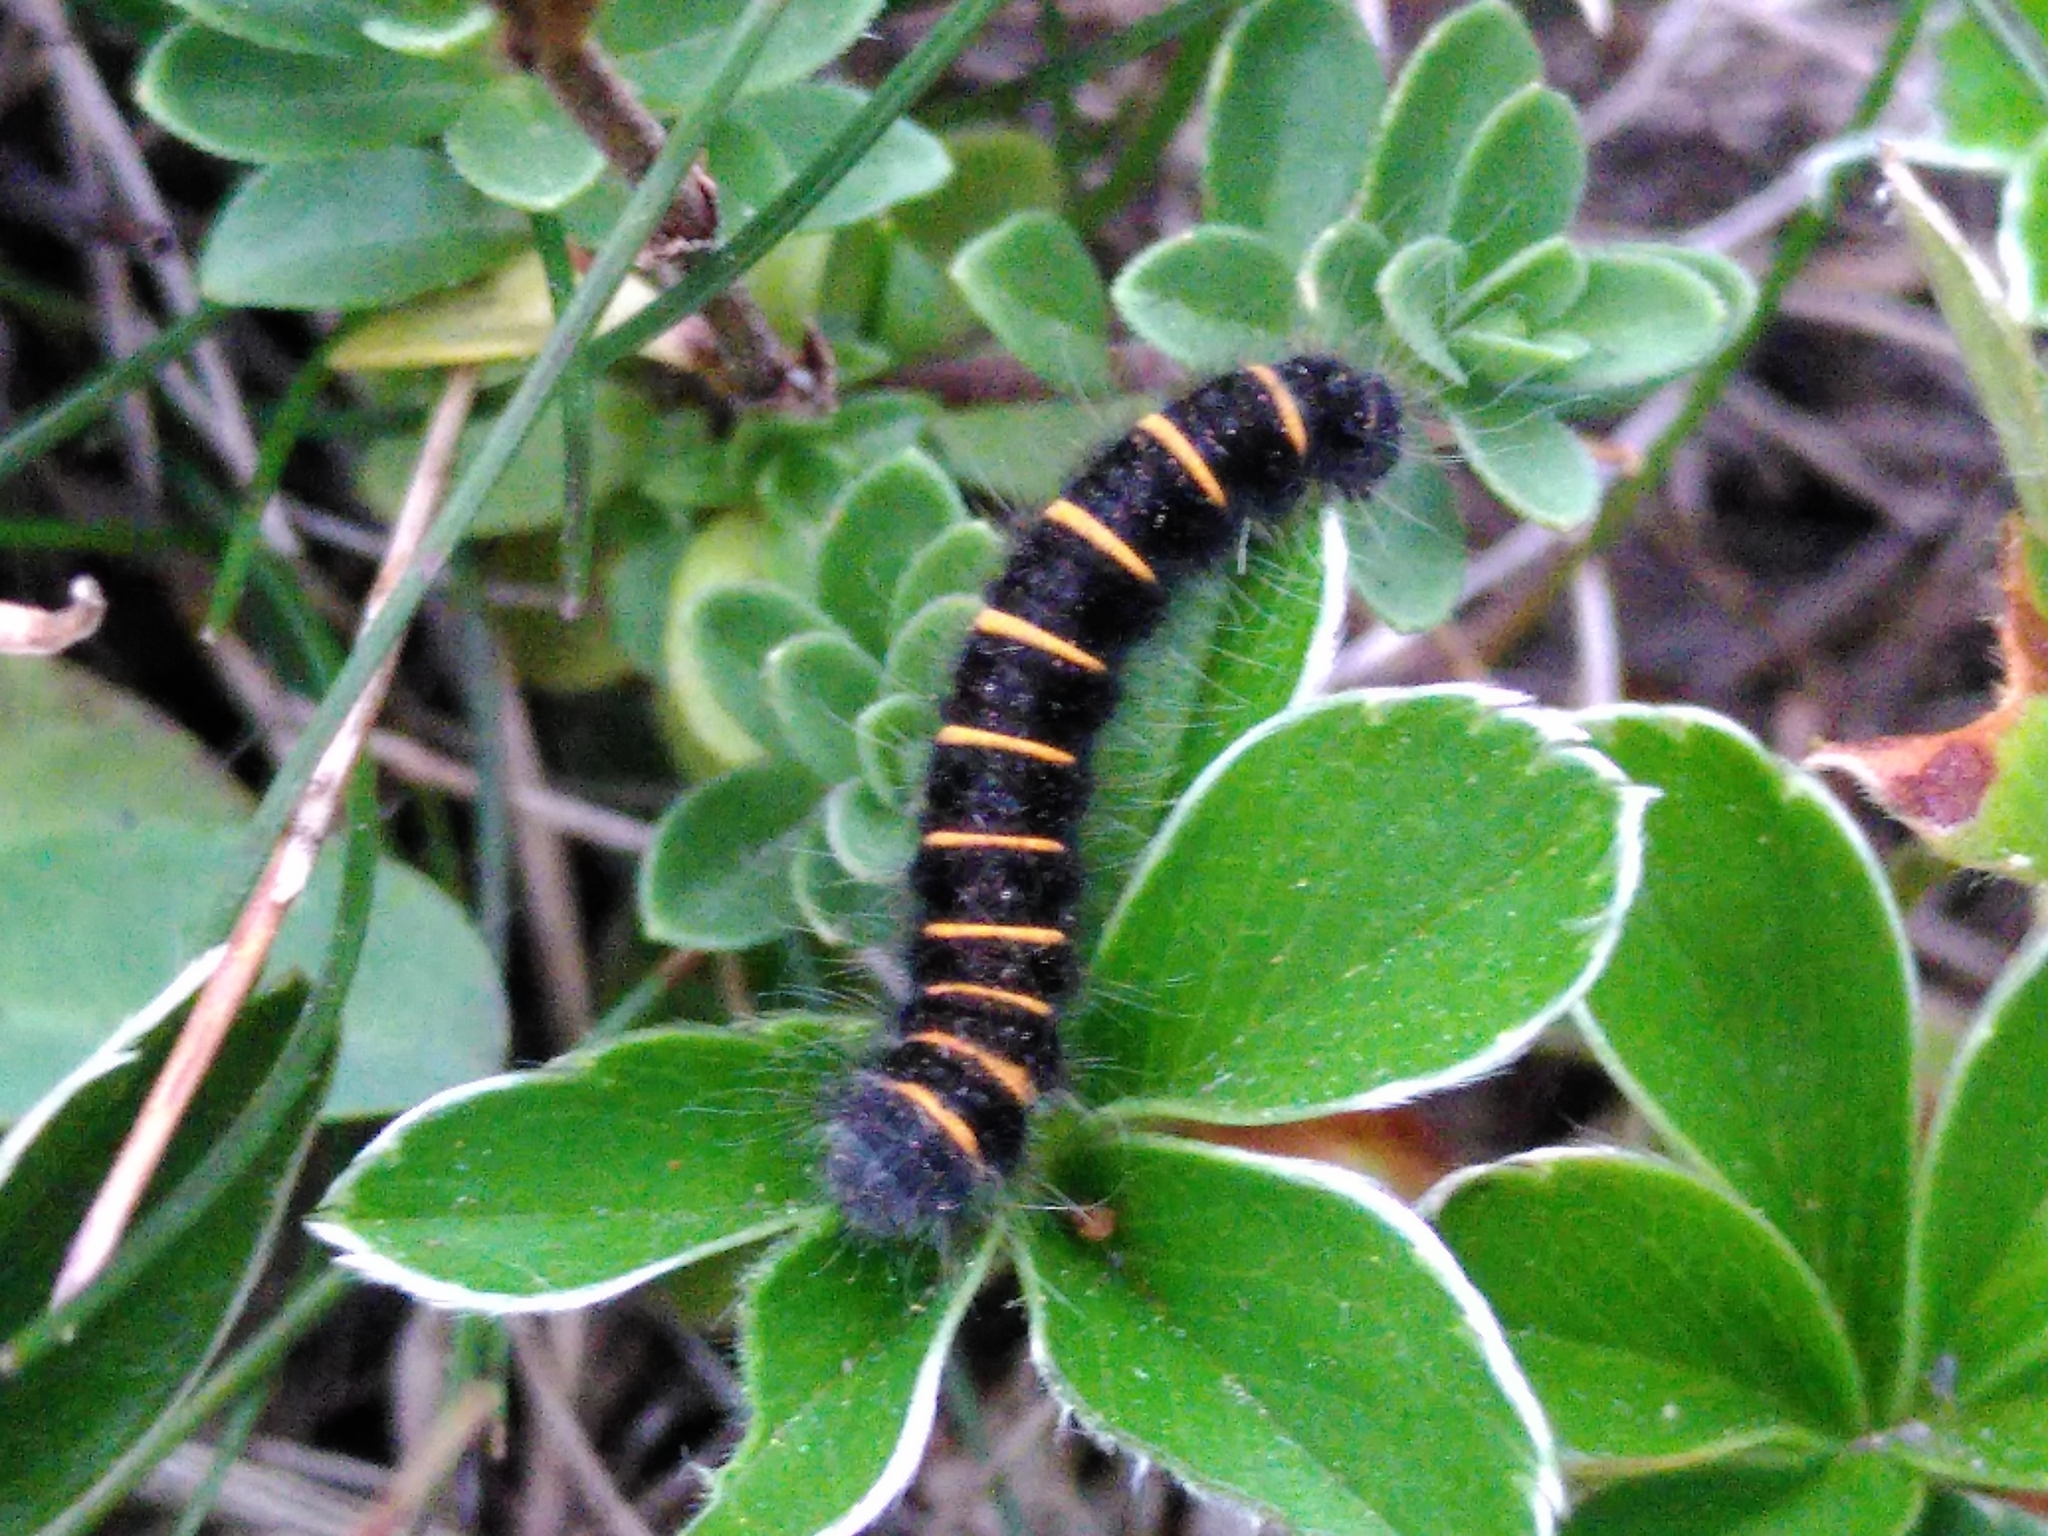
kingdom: Animalia
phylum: Arthropoda
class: Insecta
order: Lepidoptera
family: Lasiocampidae
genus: Macrothylacia
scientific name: Macrothylacia rubi
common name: Fox moth
